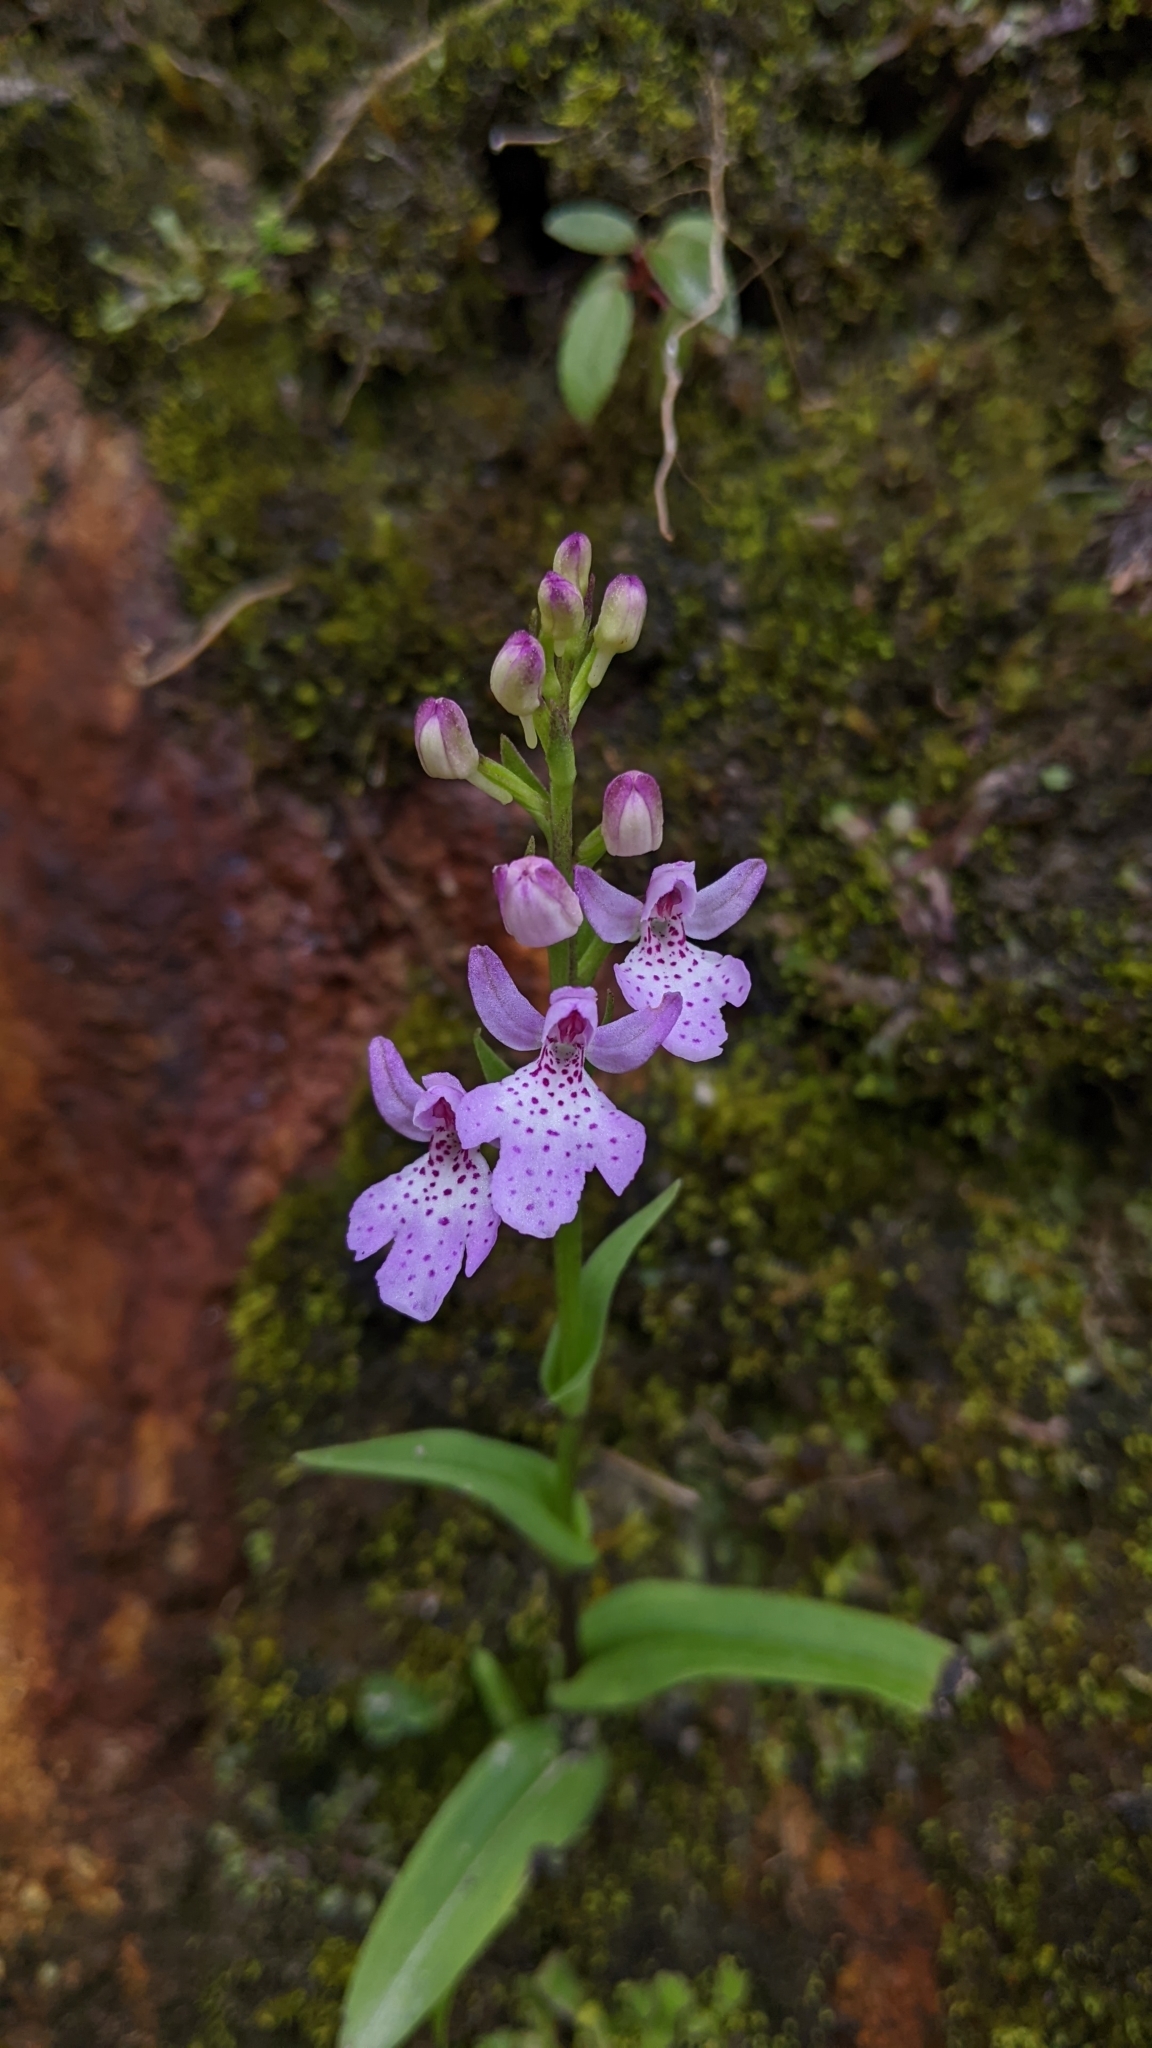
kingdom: Plantae
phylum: Tracheophyta
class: Liliopsida
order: Asparagales
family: Orchidaceae
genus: Hemipilia
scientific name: Hemipilia takasago-montana
